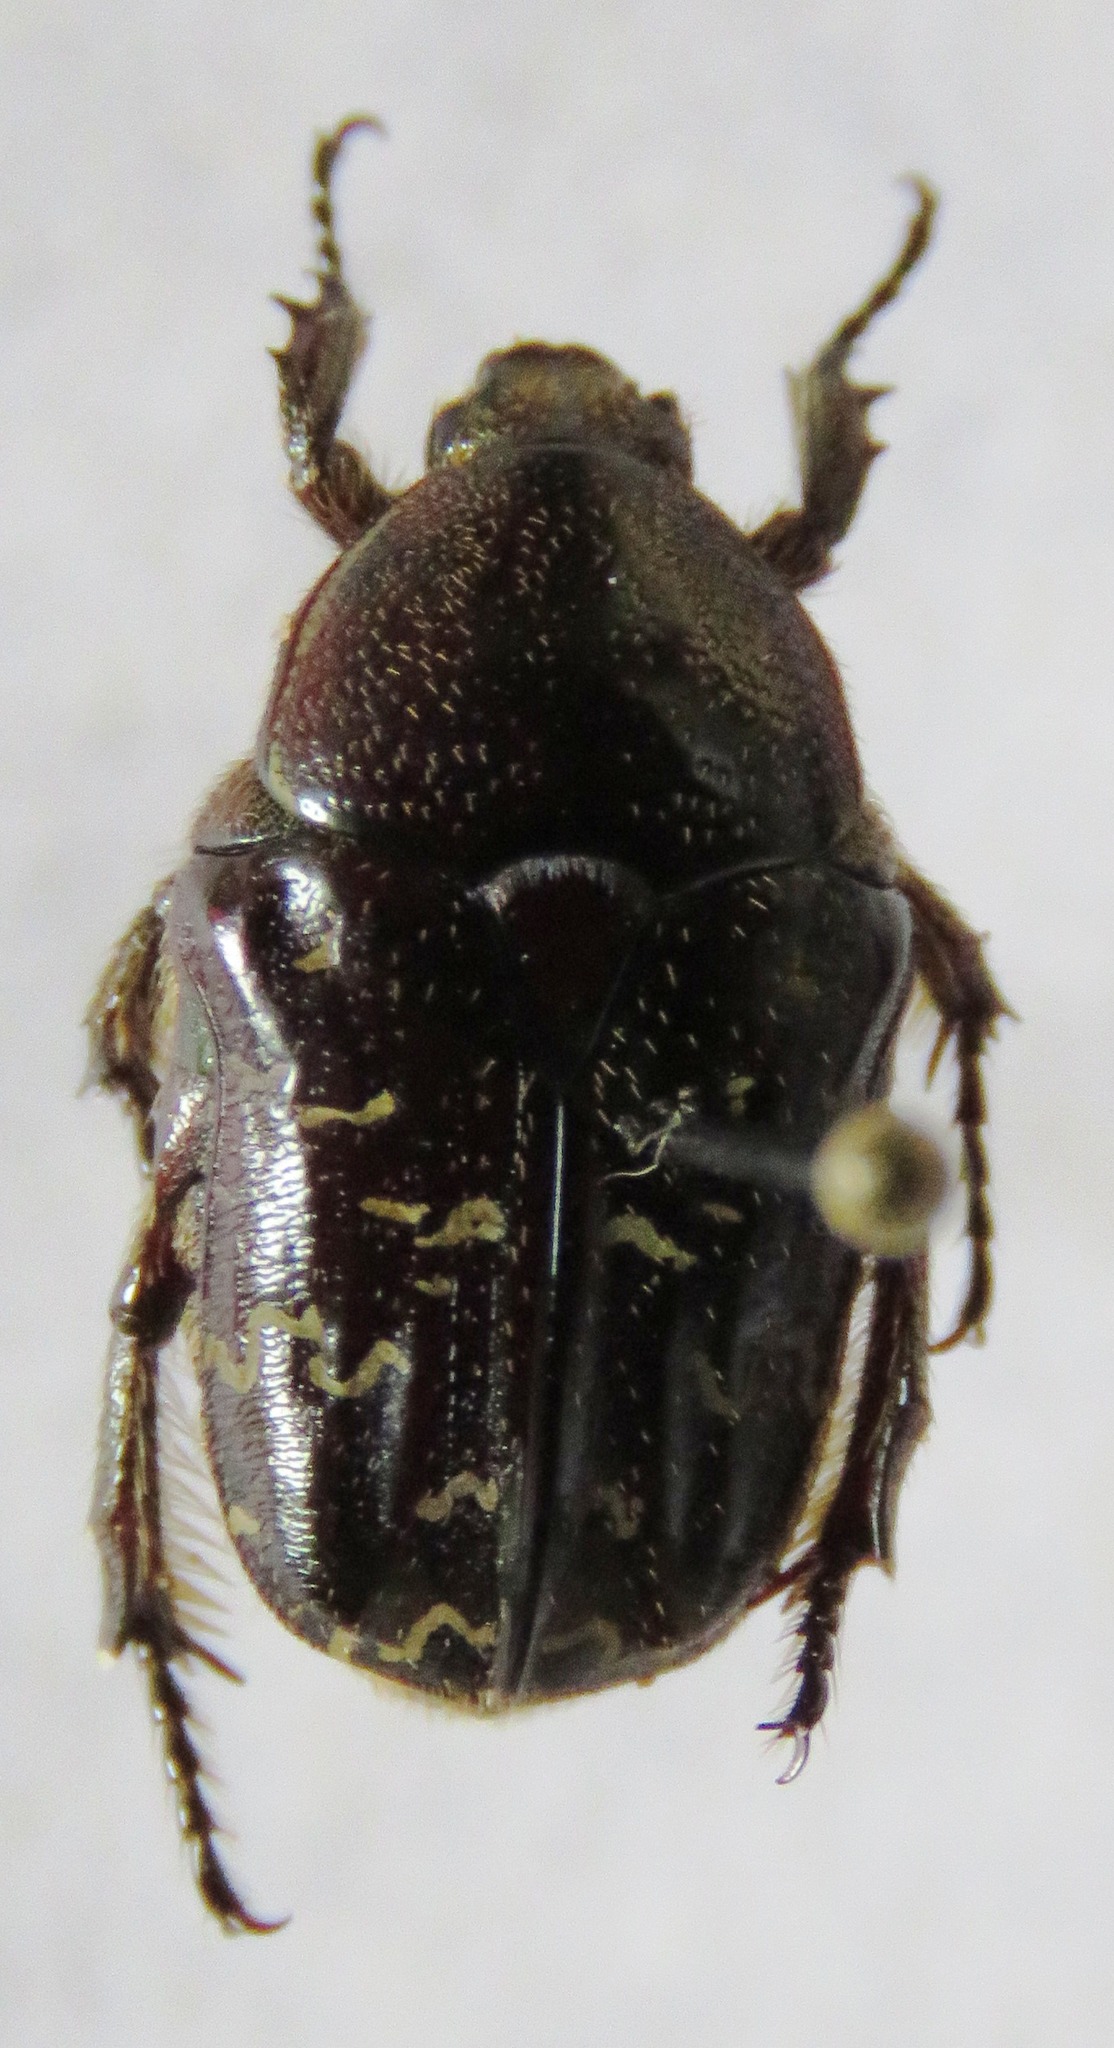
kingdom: Animalia
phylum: Arthropoda
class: Insecta
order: Coleoptera
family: Scarabaeidae
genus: Euphoria
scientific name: Euphoria yucateca
